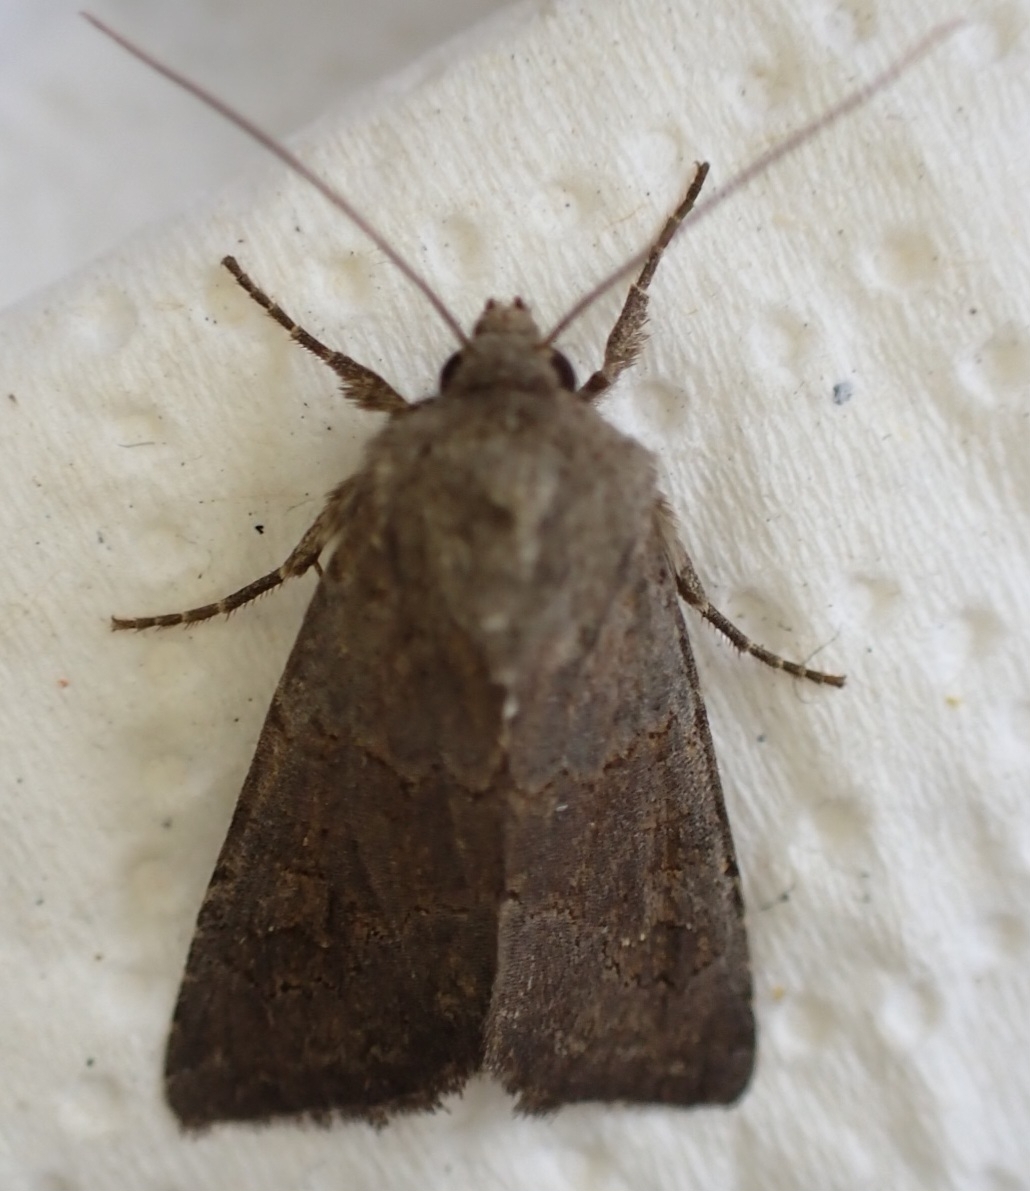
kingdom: Animalia
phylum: Arthropoda
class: Insecta
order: Lepidoptera
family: Noctuidae
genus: Aporophyla
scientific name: Aporophyla lueneburgensis
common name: Northern deep-brown dart
